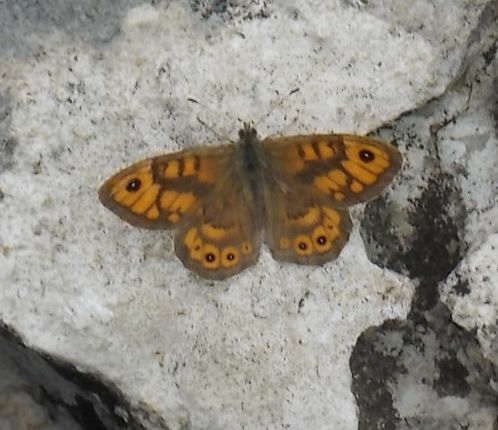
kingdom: Animalia
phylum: Arthropoda
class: Insecta
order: Lepidoptera
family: Nymphalidae
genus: Pararge
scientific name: Pararge Lasiommata megera
